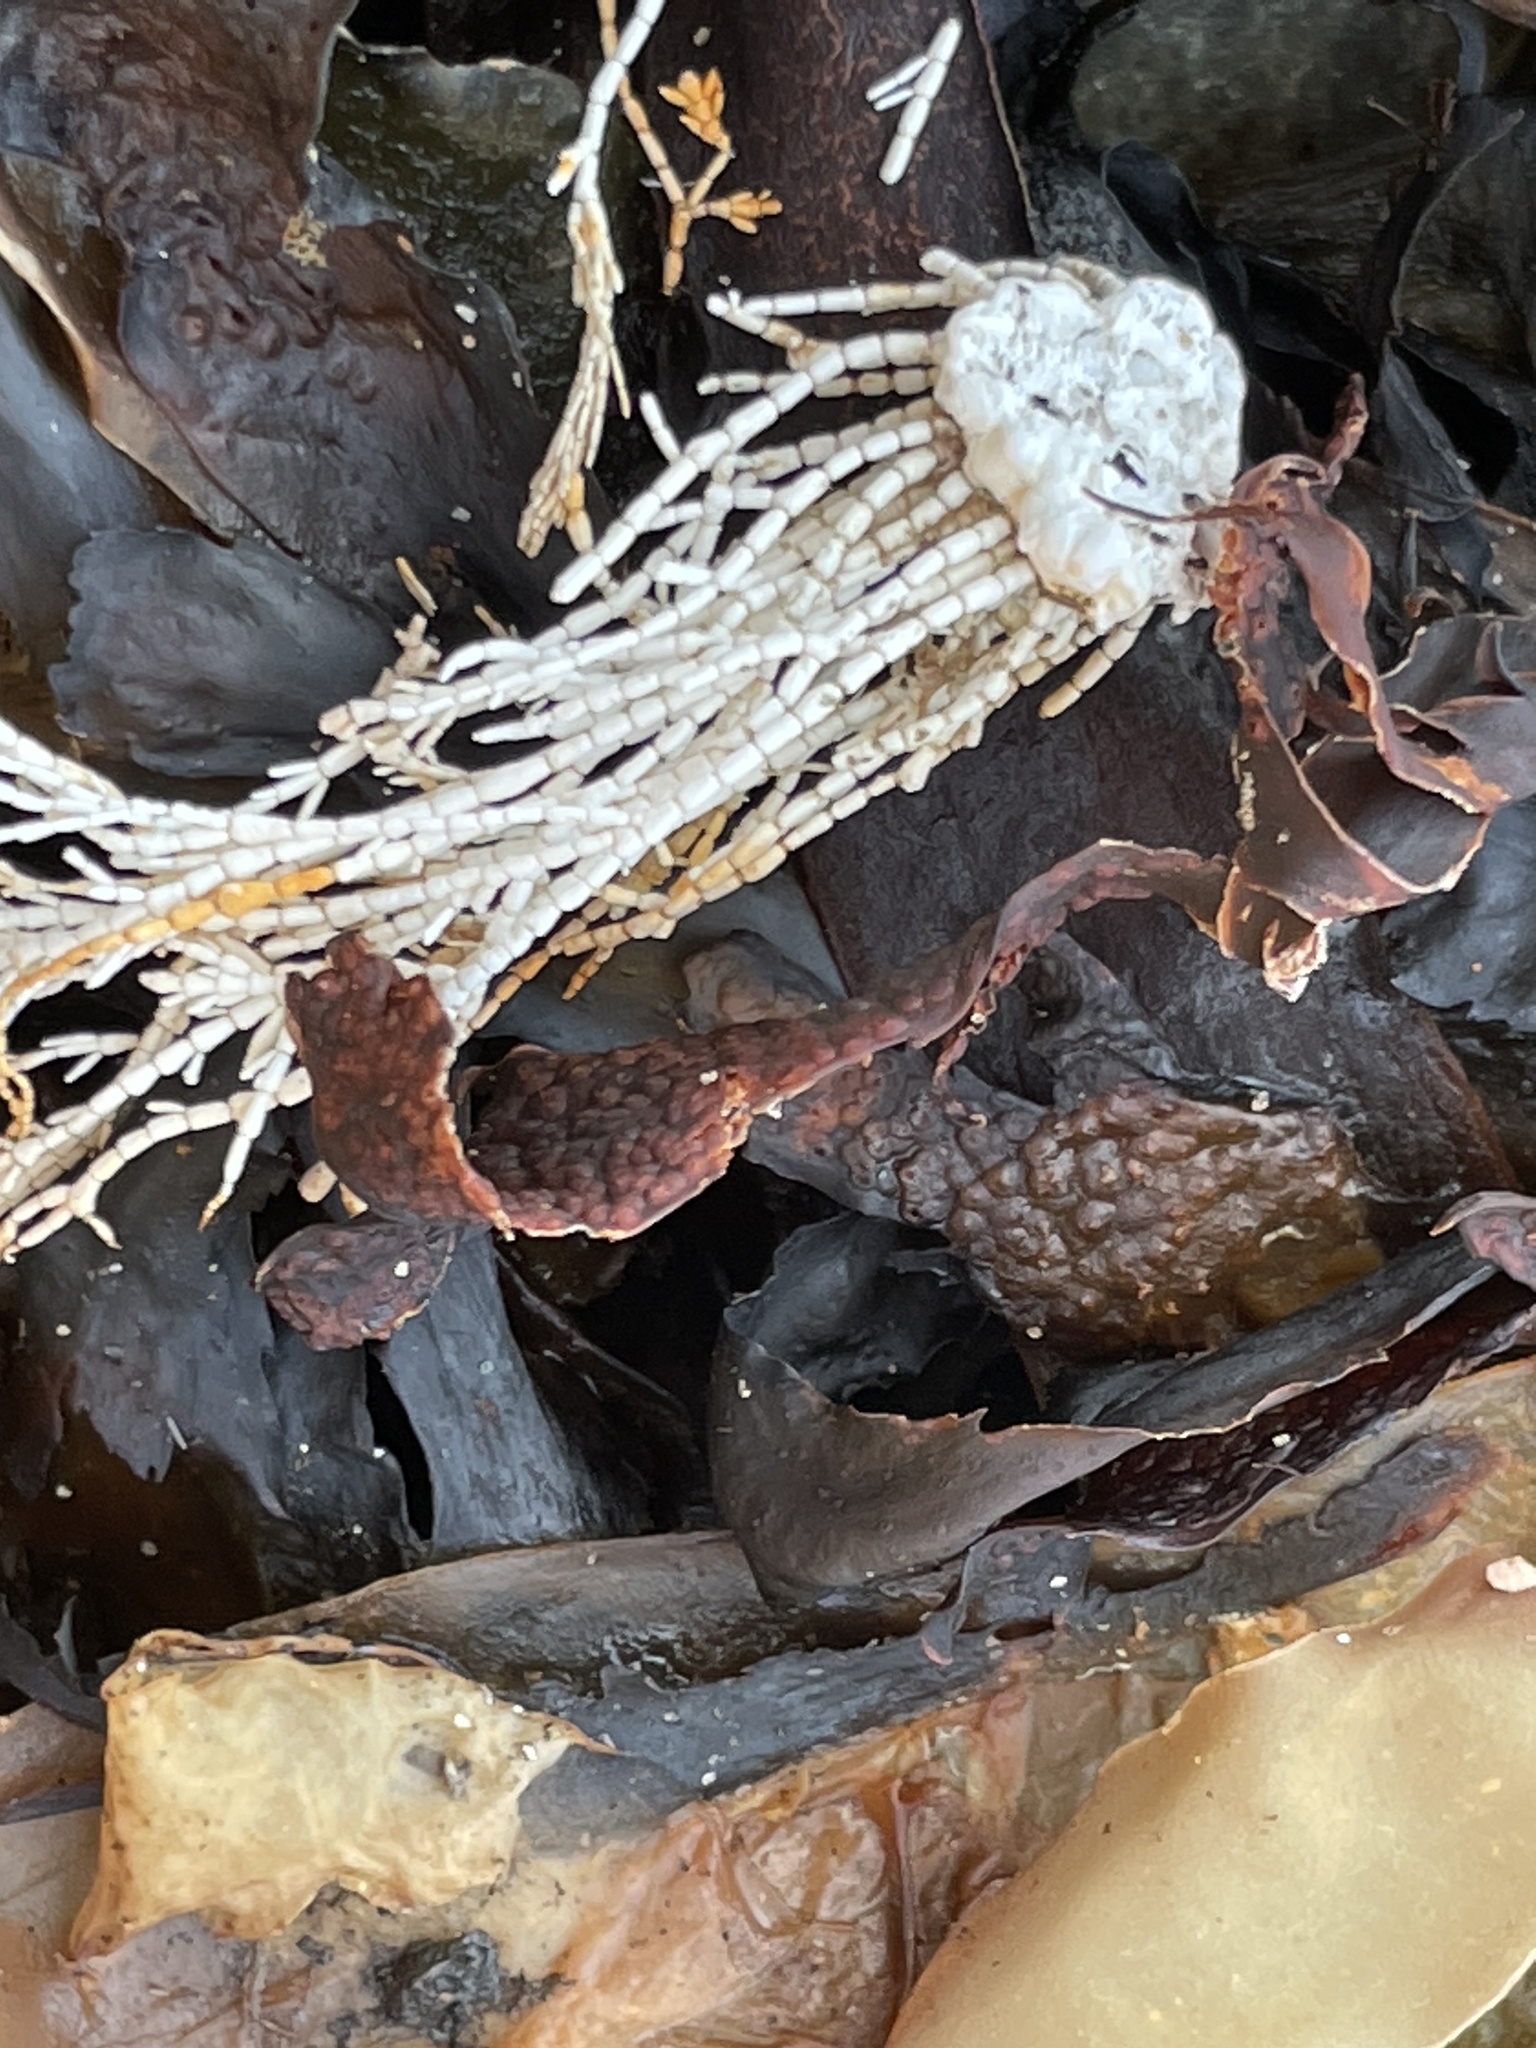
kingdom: Plantae
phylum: Rhodophyta
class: Florideophyceae
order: Corallinales
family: Corallinaceae
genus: Corallina
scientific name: Corallina officinalis
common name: Coral weed
